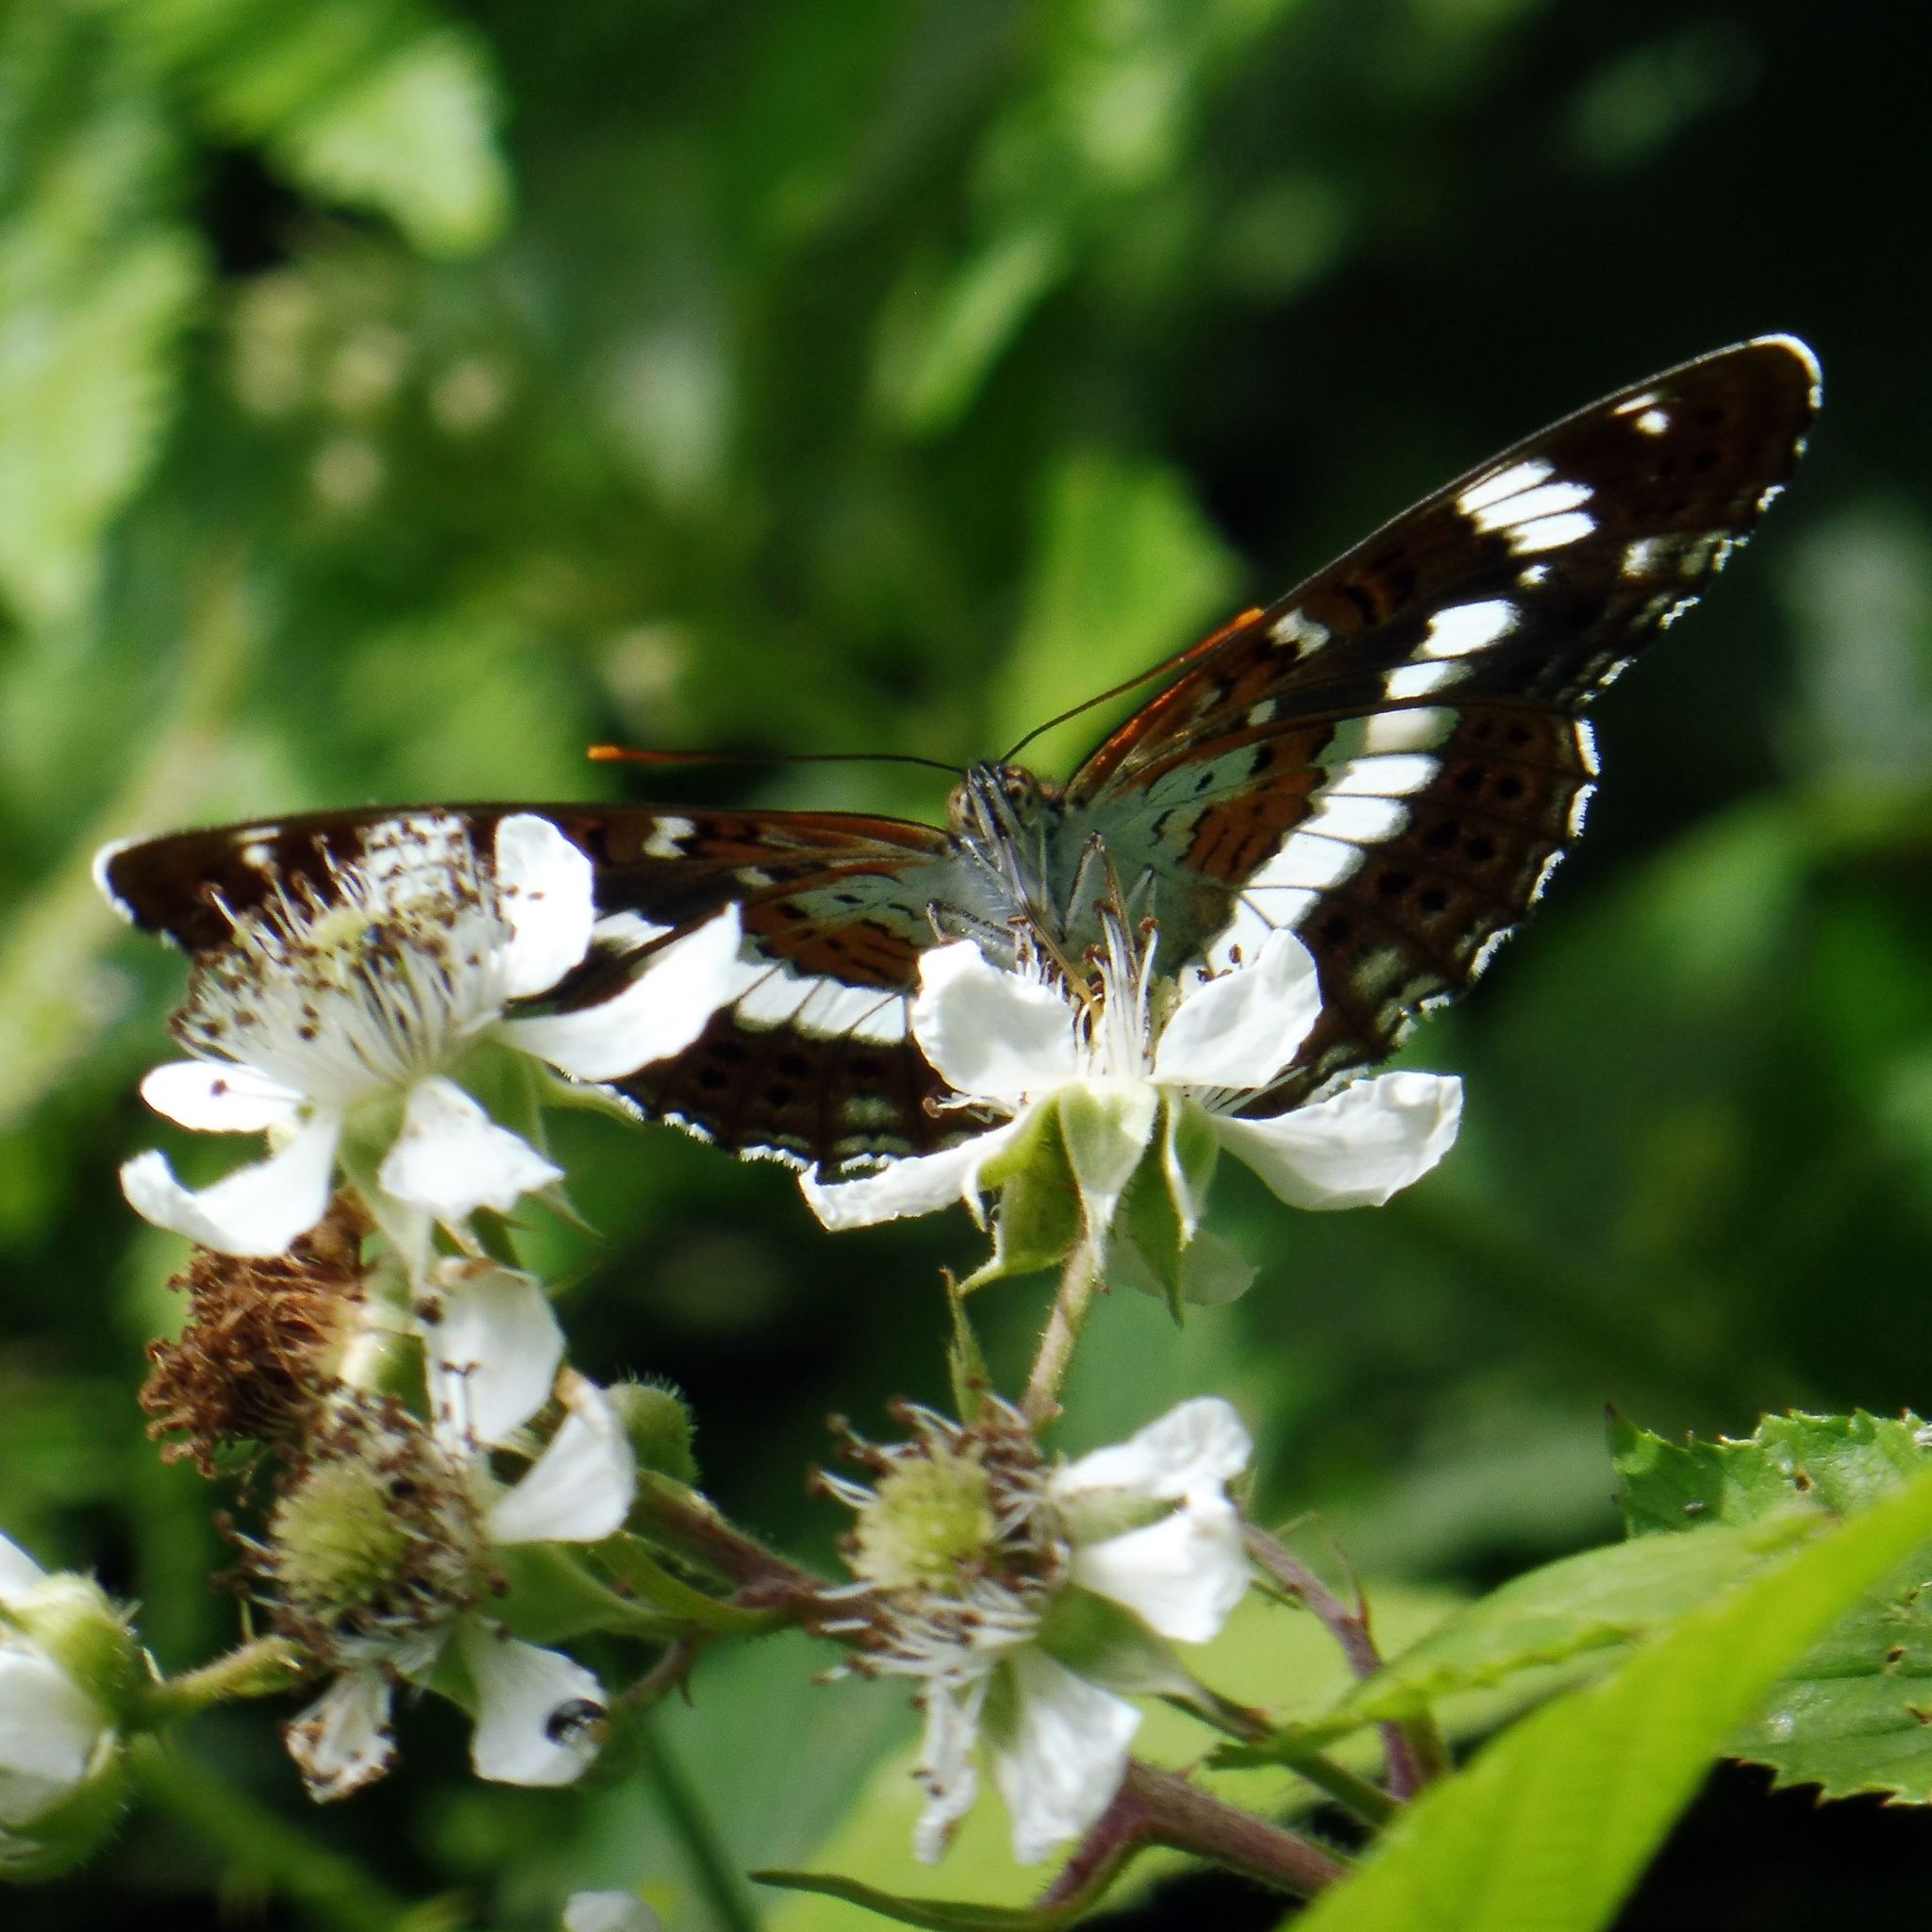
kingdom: Animalia
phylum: Arthropoda
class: Insecta
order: Lepidoptera
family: Nymphalidae
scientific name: Nymphalidae
